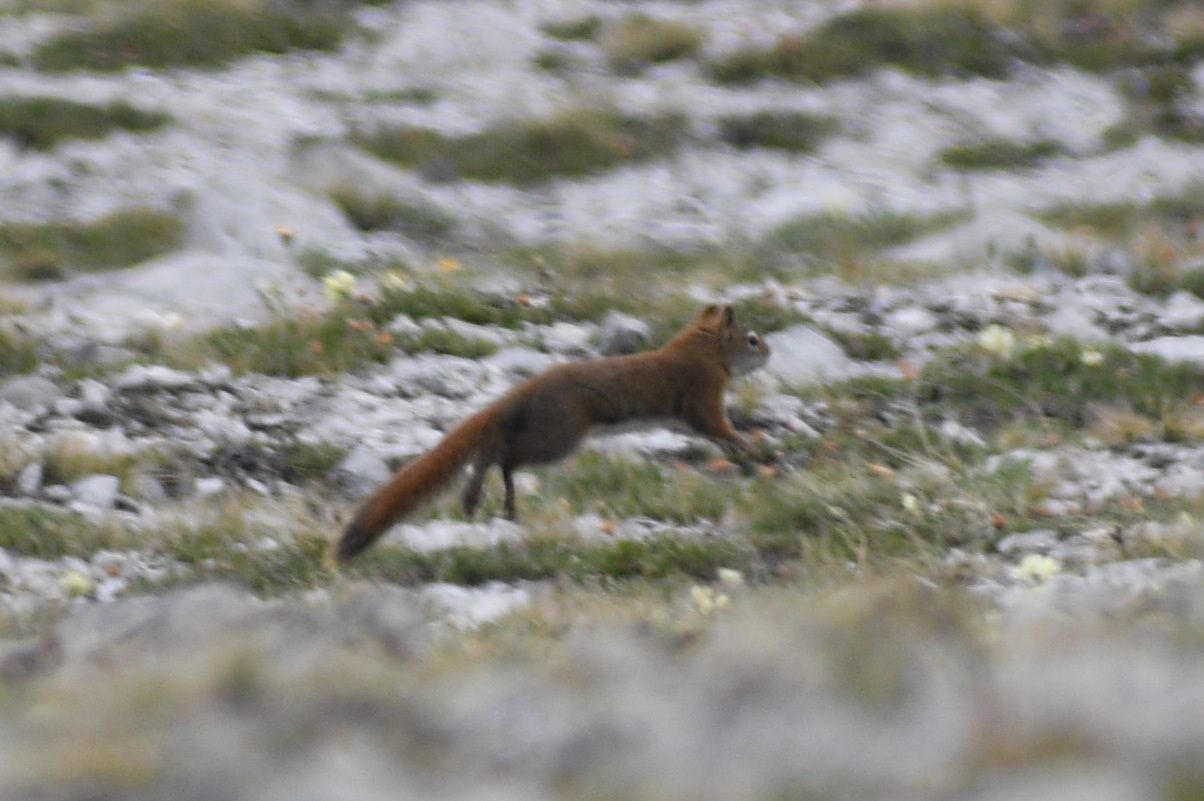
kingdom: Animalia
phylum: Chordata
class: Mammalia
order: Rodentia
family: Sciuridae
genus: Tamiasciurus
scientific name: Tamiasciurus hudsonicus
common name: Red squirrel
